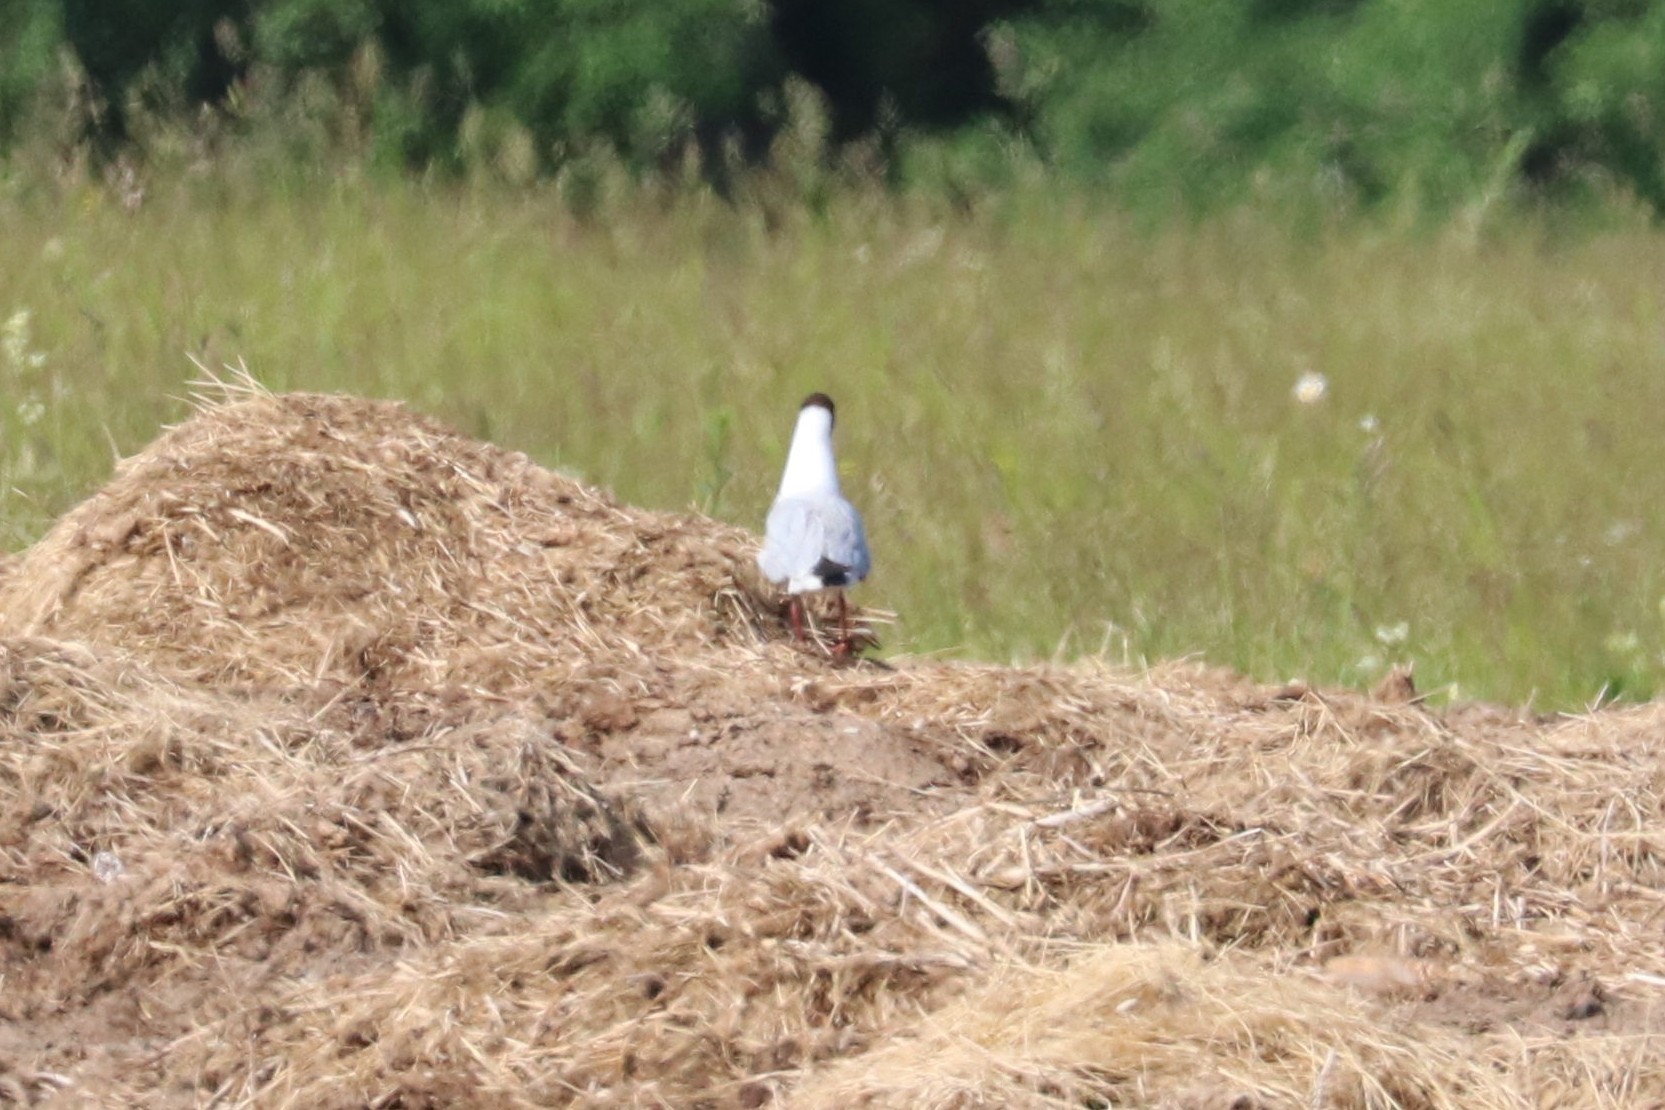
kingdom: Animalia
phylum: Chordata
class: Aves
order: Charadriiformes
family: Laridae
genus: Chroicocephalus
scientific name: Chroicocephalus ridibundus
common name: Black-headed gull
